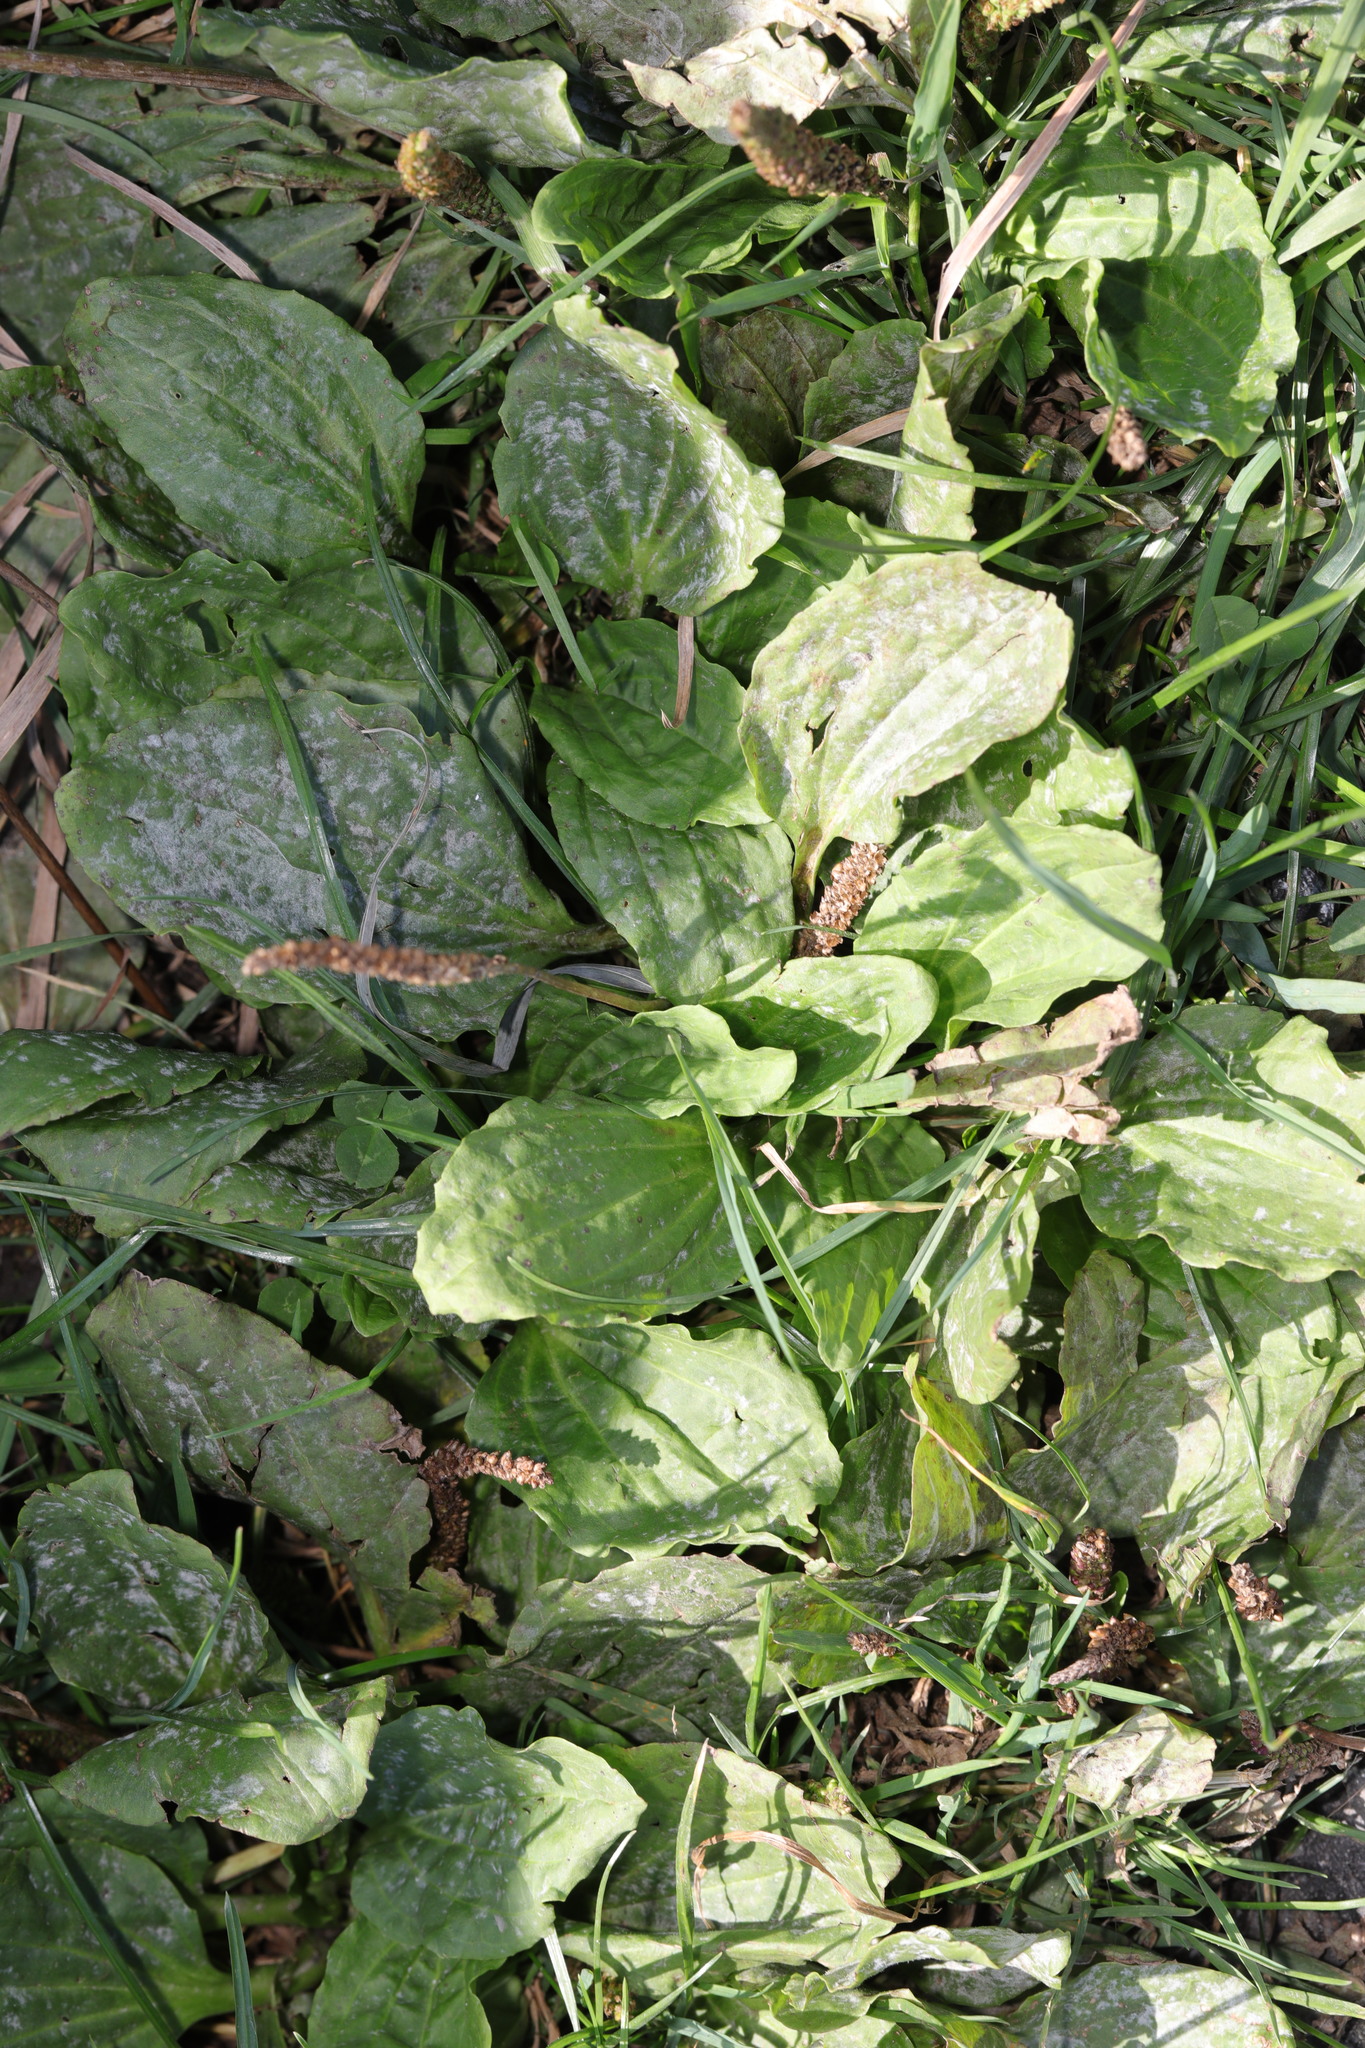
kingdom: Plantae
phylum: Tracheophyta
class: Magnoliopsida
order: Lamiales
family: Plantaginaceae
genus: Plantago
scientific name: Plantago major
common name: Common plantain
